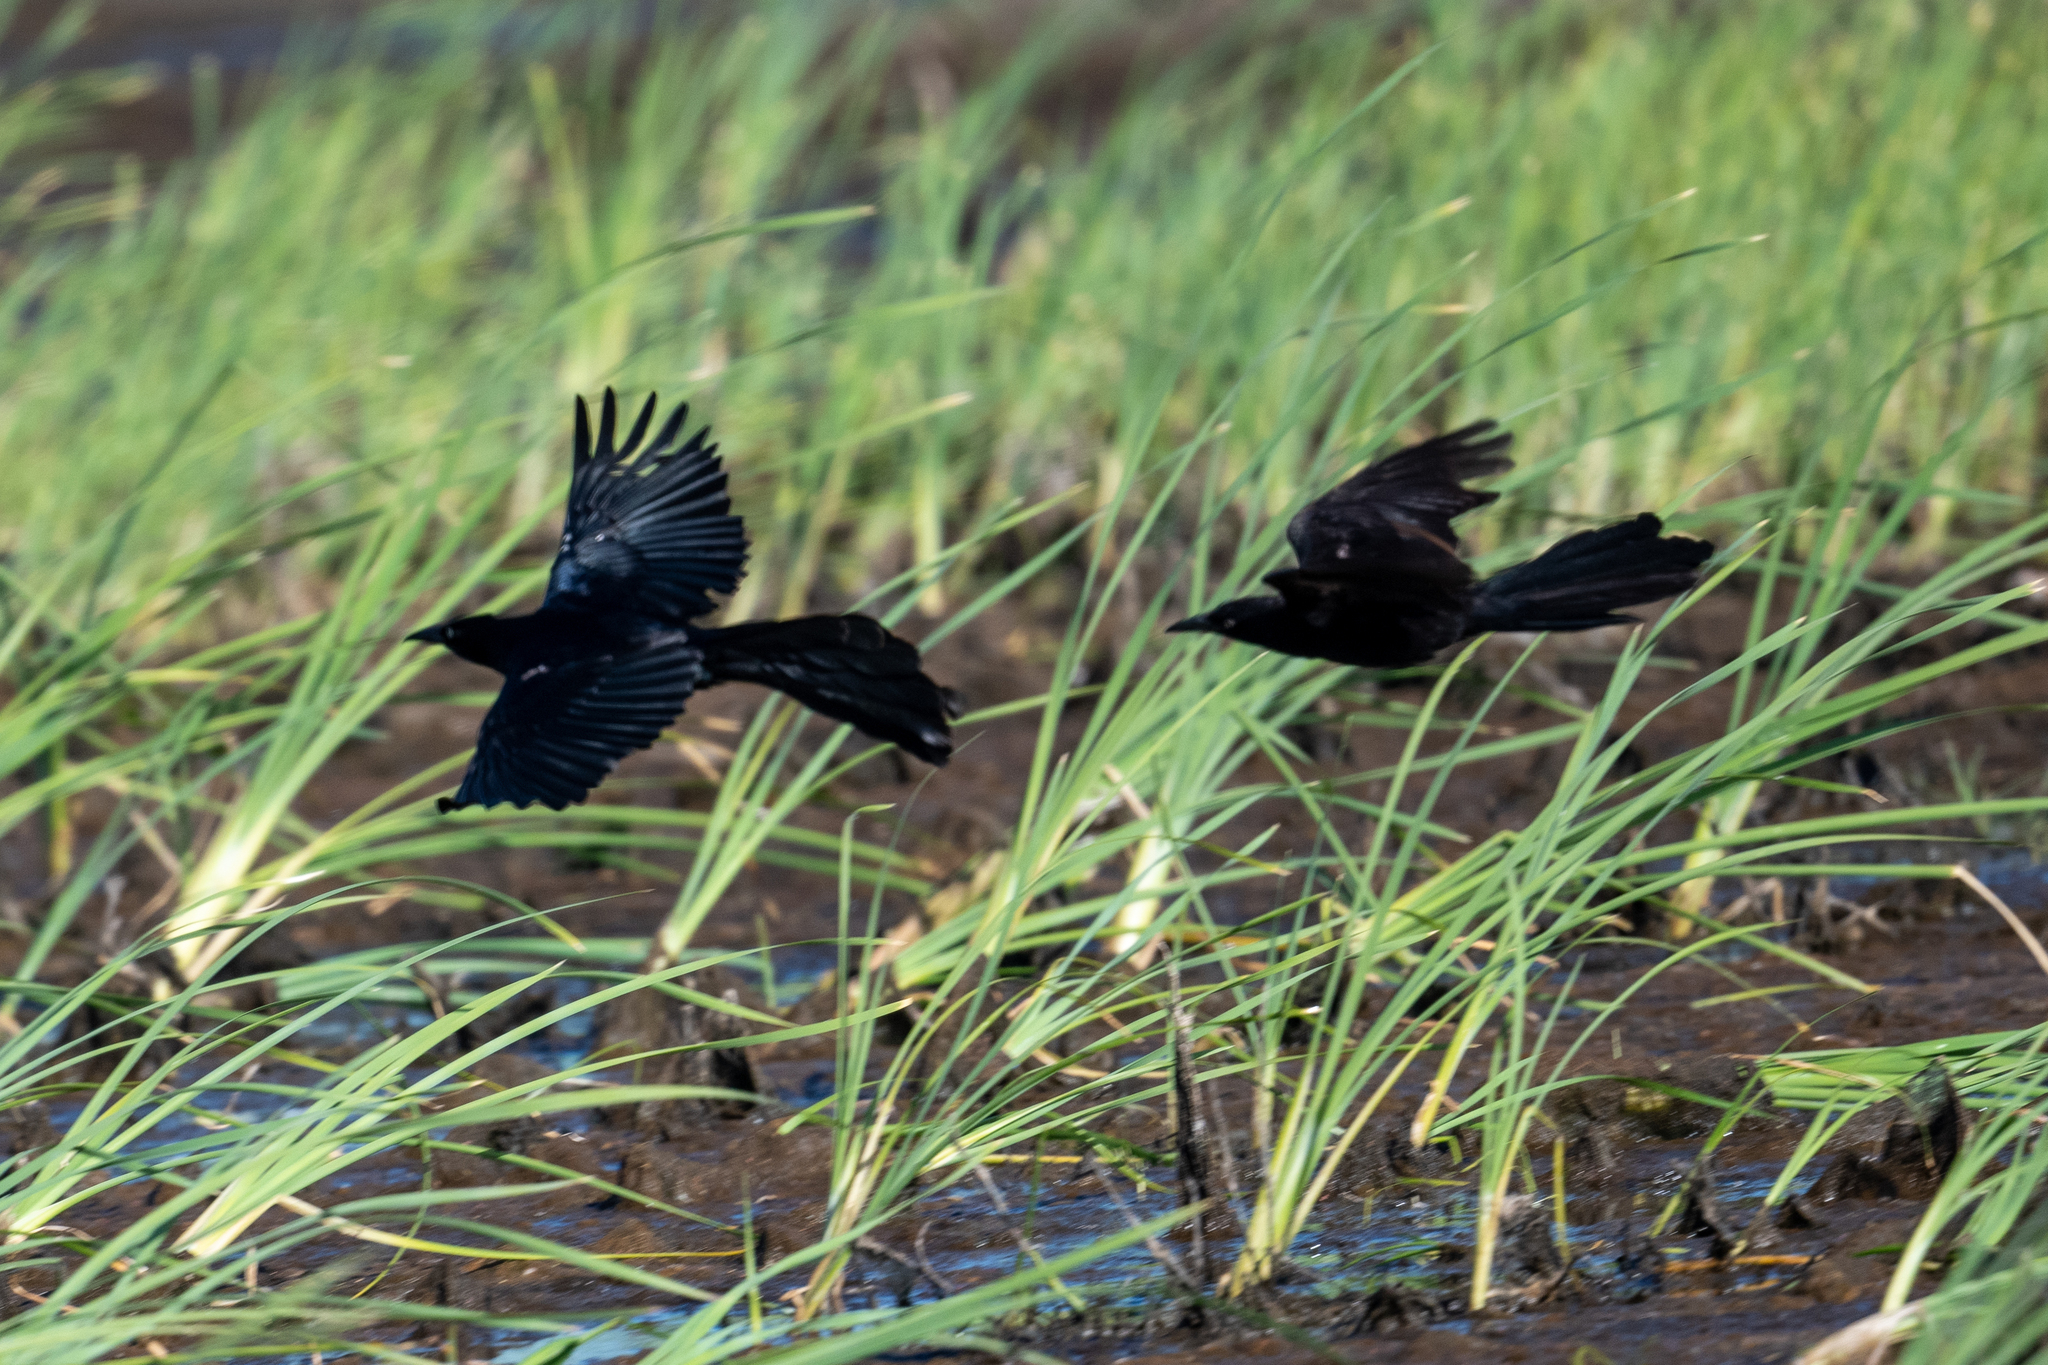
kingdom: Animalia
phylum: Chordata
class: Aves
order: Passeriformes
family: Icteridae
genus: Quiscalus
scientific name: Quiscalus mexicanus
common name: Great-tailed grackle
